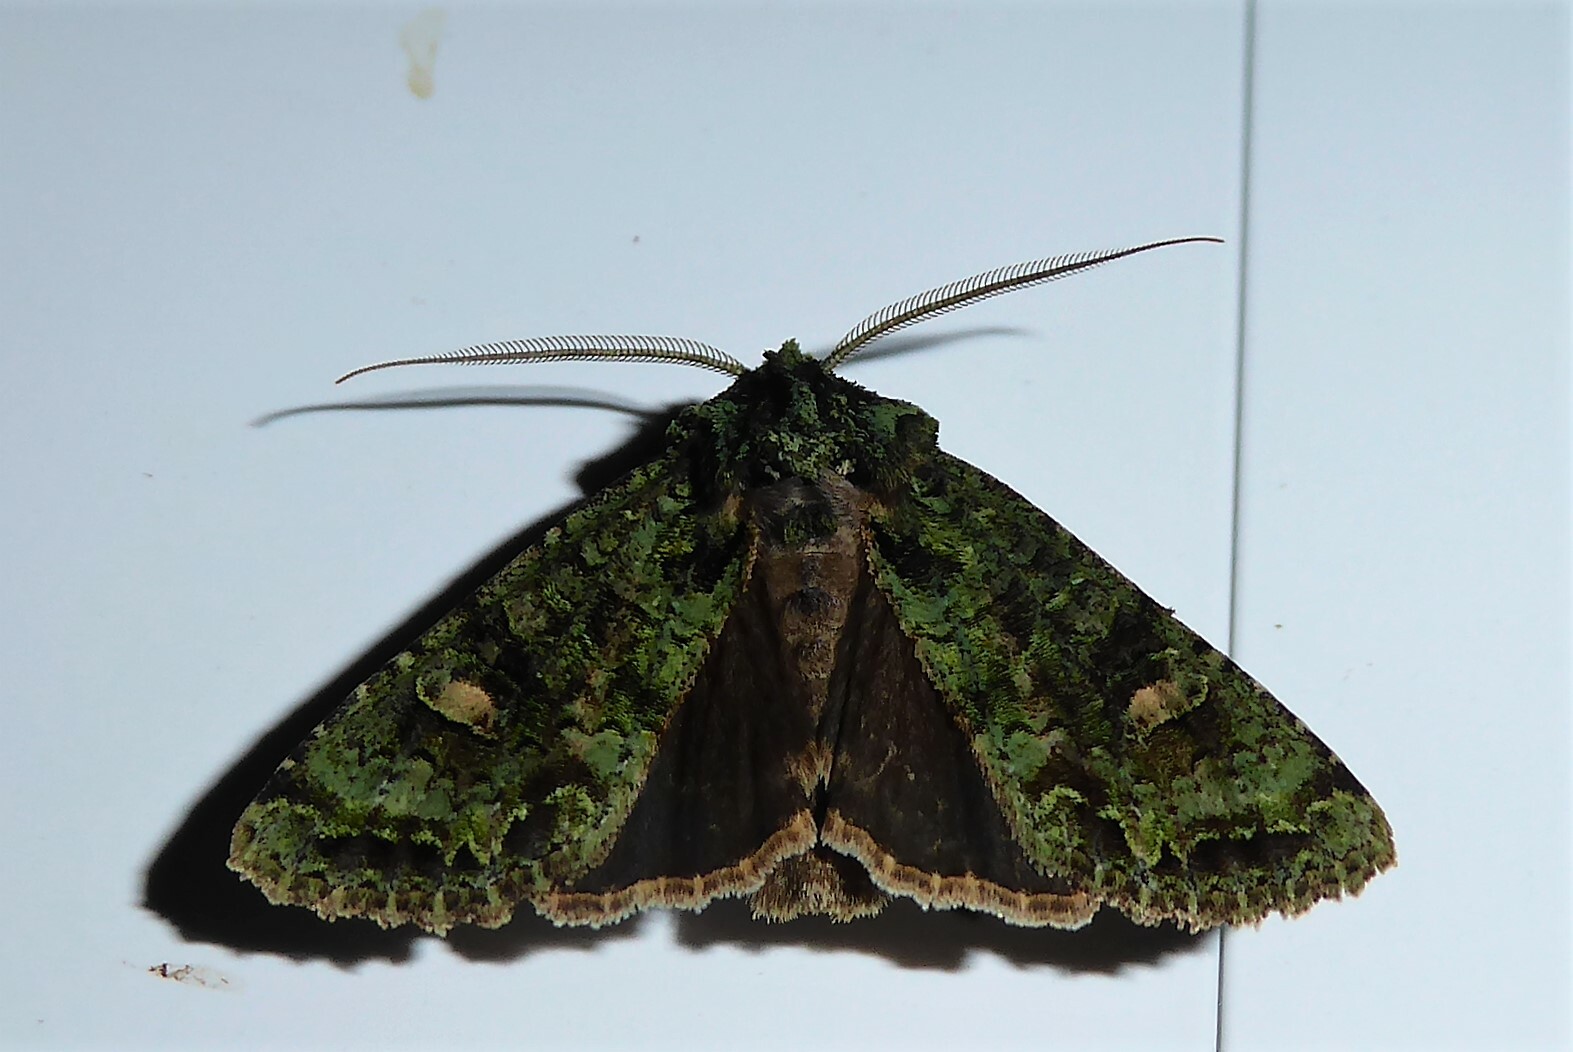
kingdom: Animalia
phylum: Arthropoda
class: Insecta
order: Lepidoptera
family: Noctuidae
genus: Ichneutica
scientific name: Ichneutica
